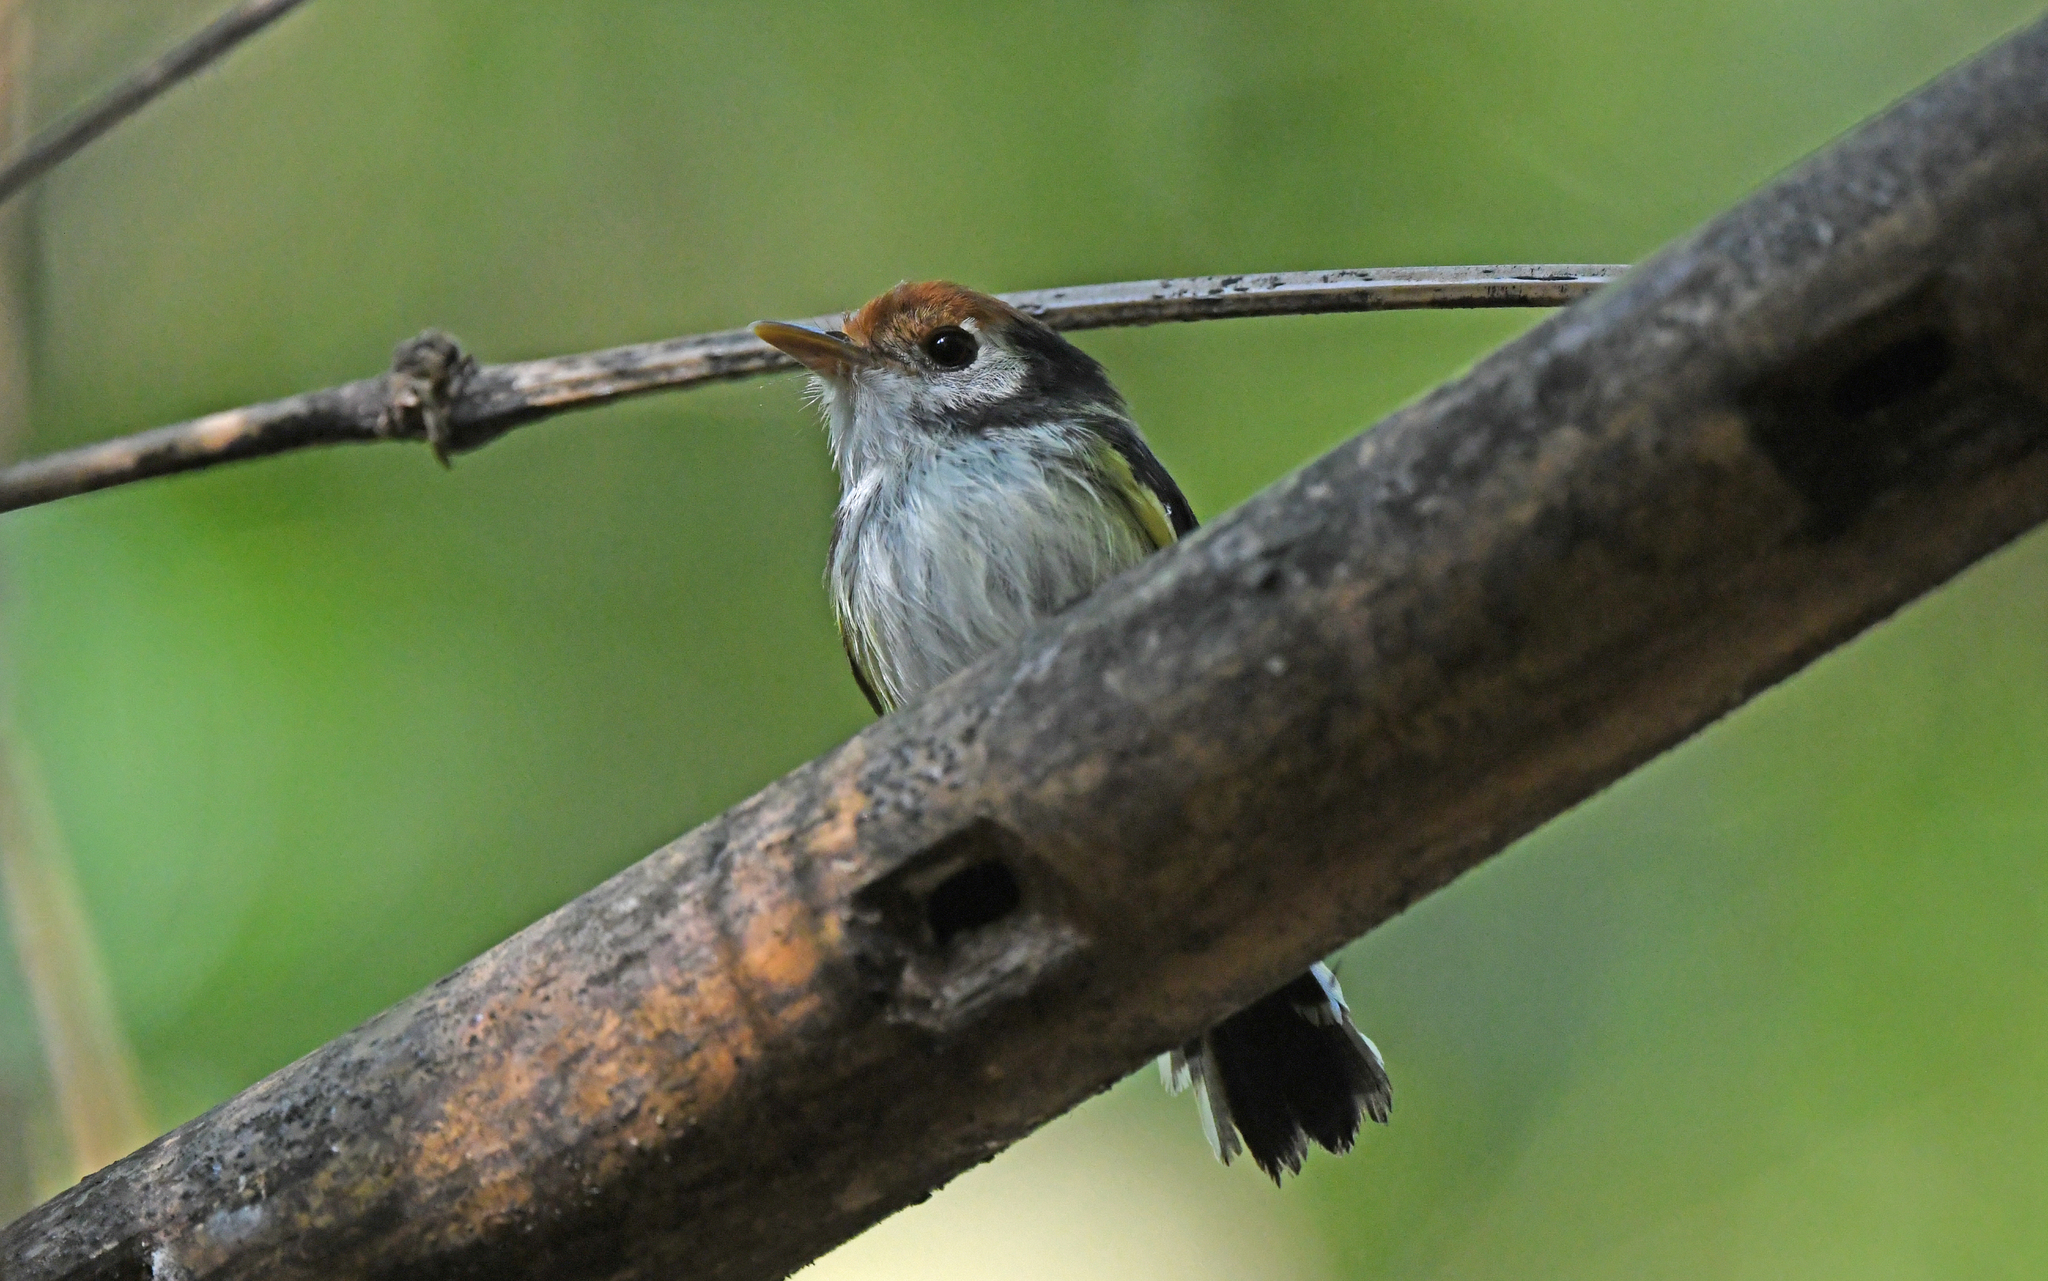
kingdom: Animalia
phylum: Chordata
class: Aves
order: Passeriformes
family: Tyrannidae
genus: Poecilotriccus
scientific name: Poecilotriccus albifacies
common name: White-cheeked tody-flycatcher
